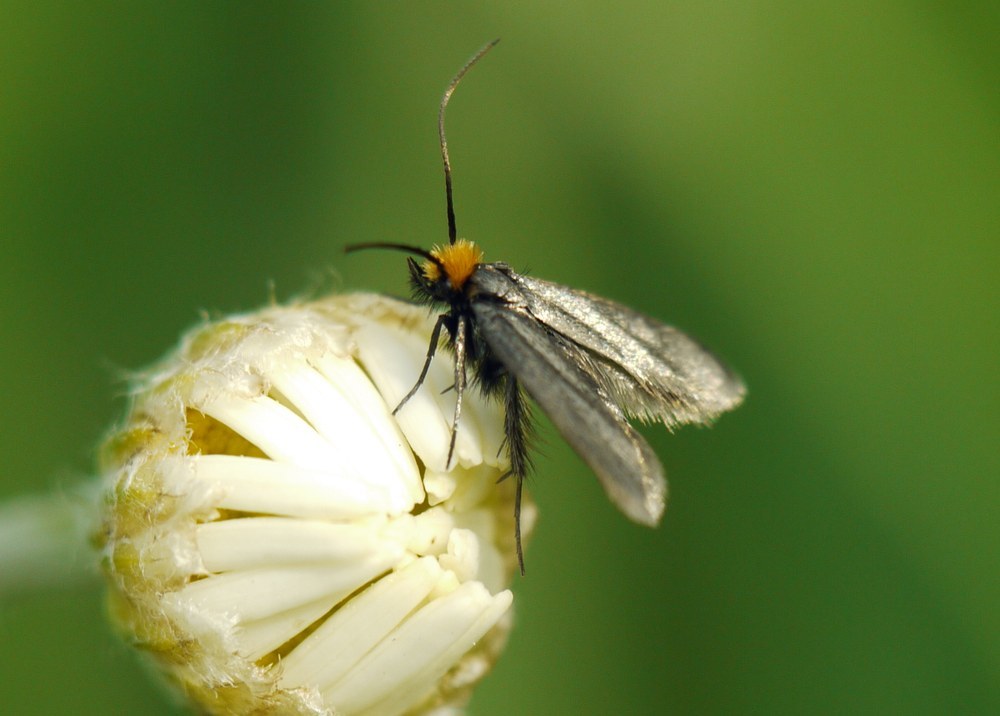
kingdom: Animalia
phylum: Arthropoda
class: Insecta
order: Lepidoptera
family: Adelidae
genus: Cauchas
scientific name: Cauchas rufifrontella
